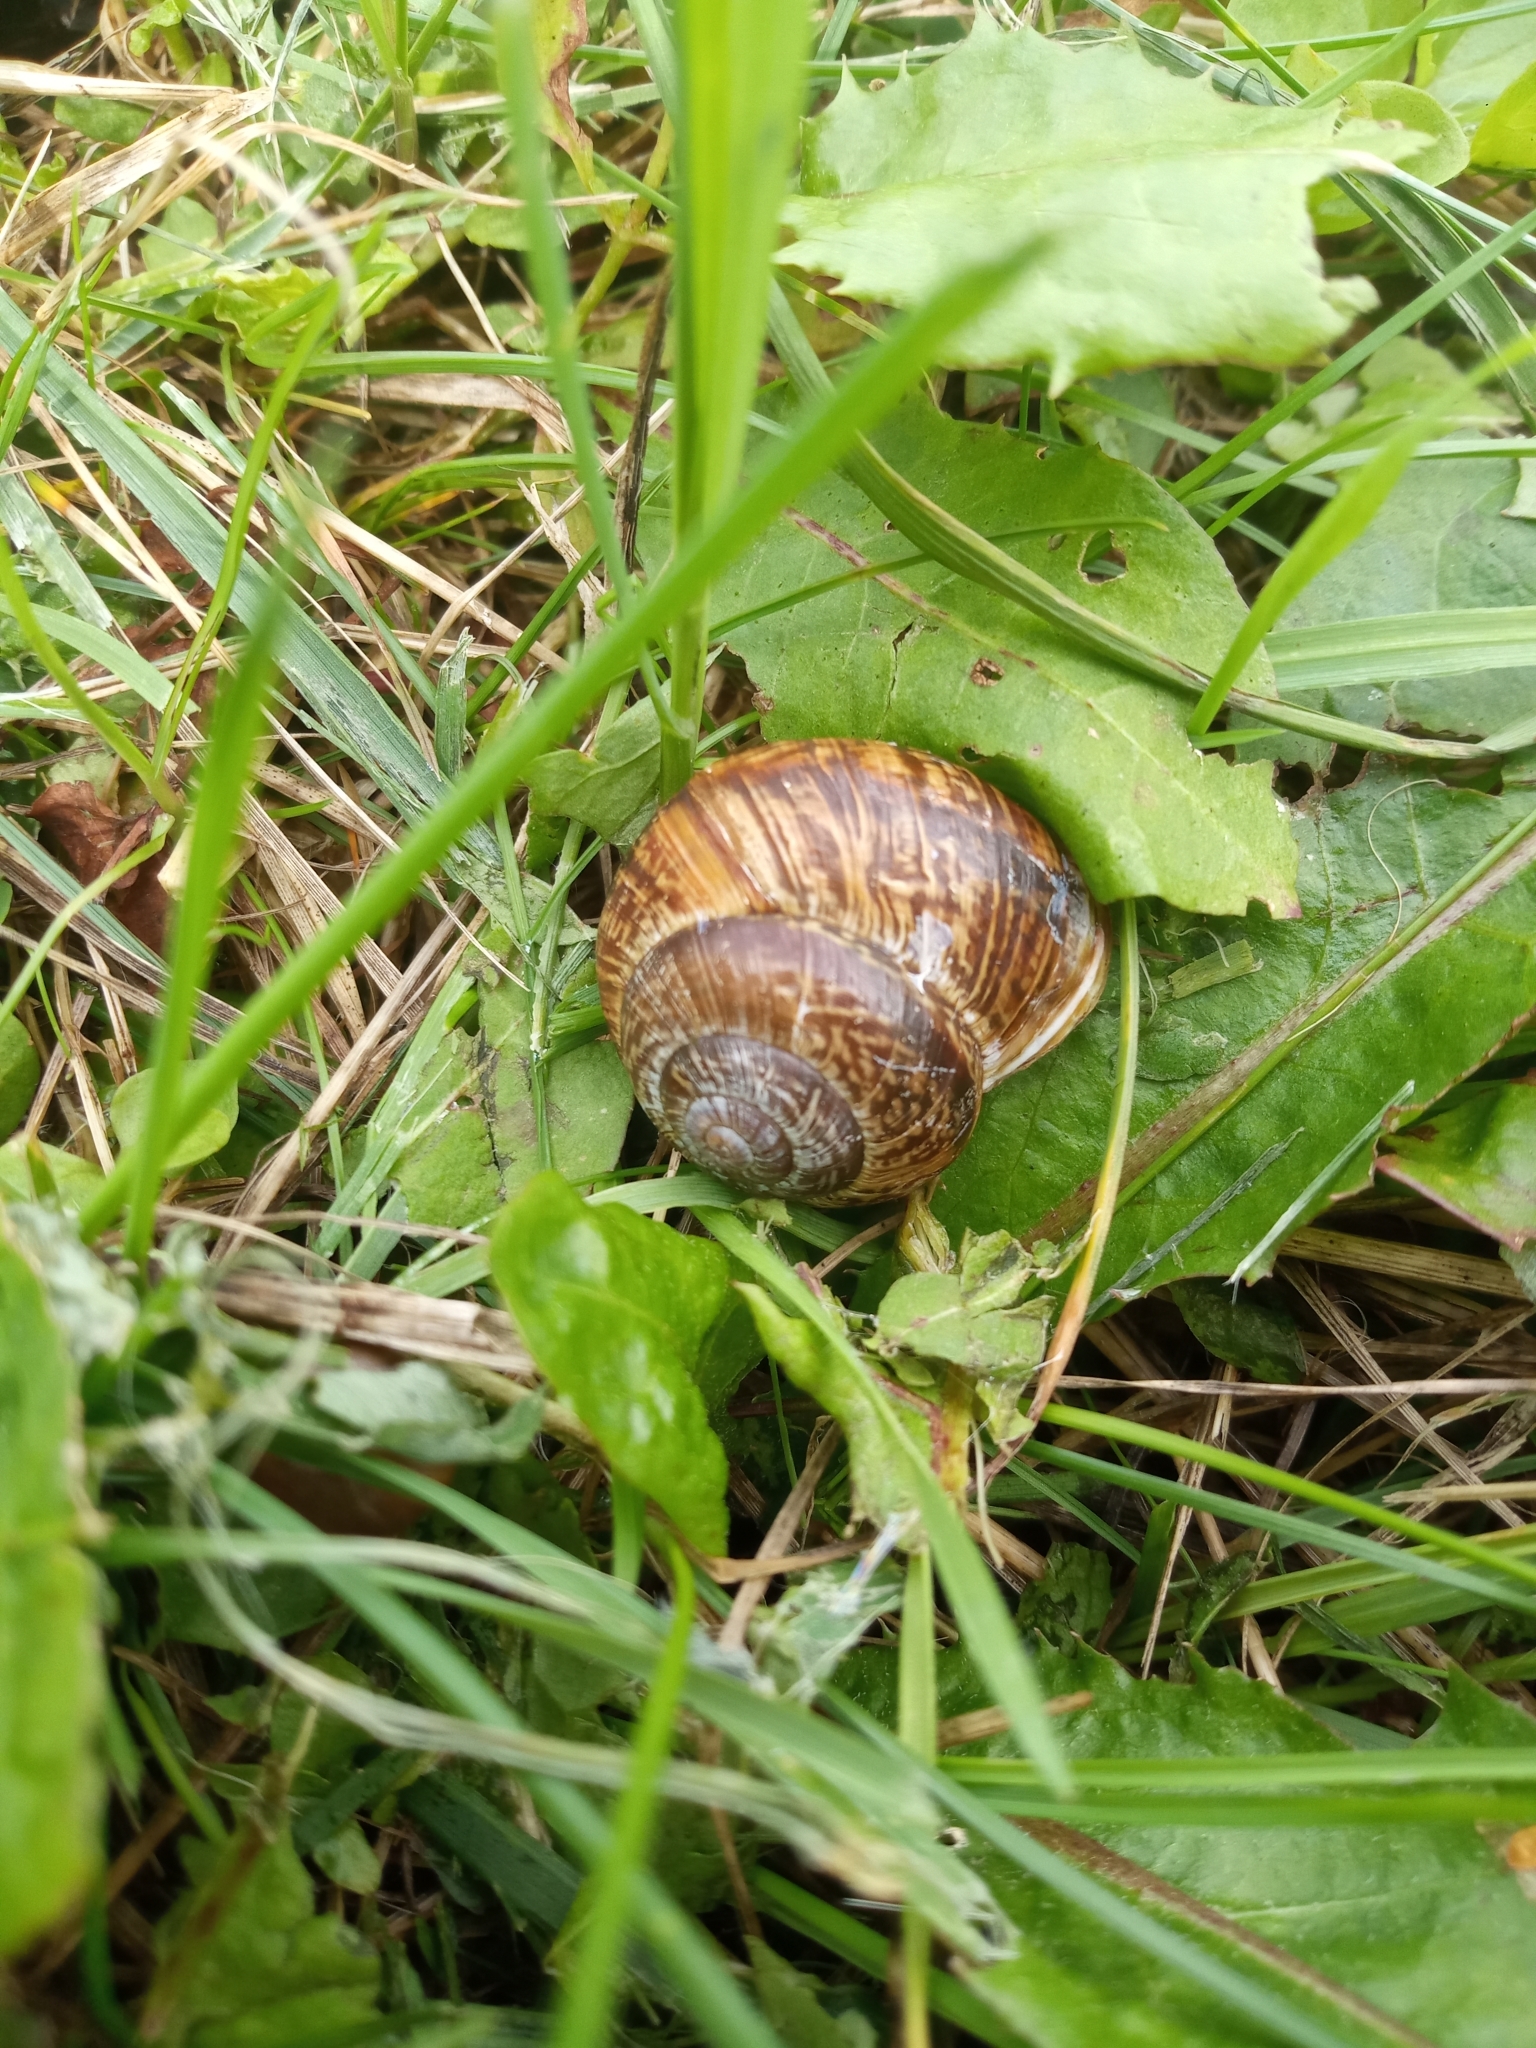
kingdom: Animalia
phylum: Mollusca
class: Gastropoda
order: Stylommatophora
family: Helicidae
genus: Arianta
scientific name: Arianta arbustorum
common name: Copse snail
